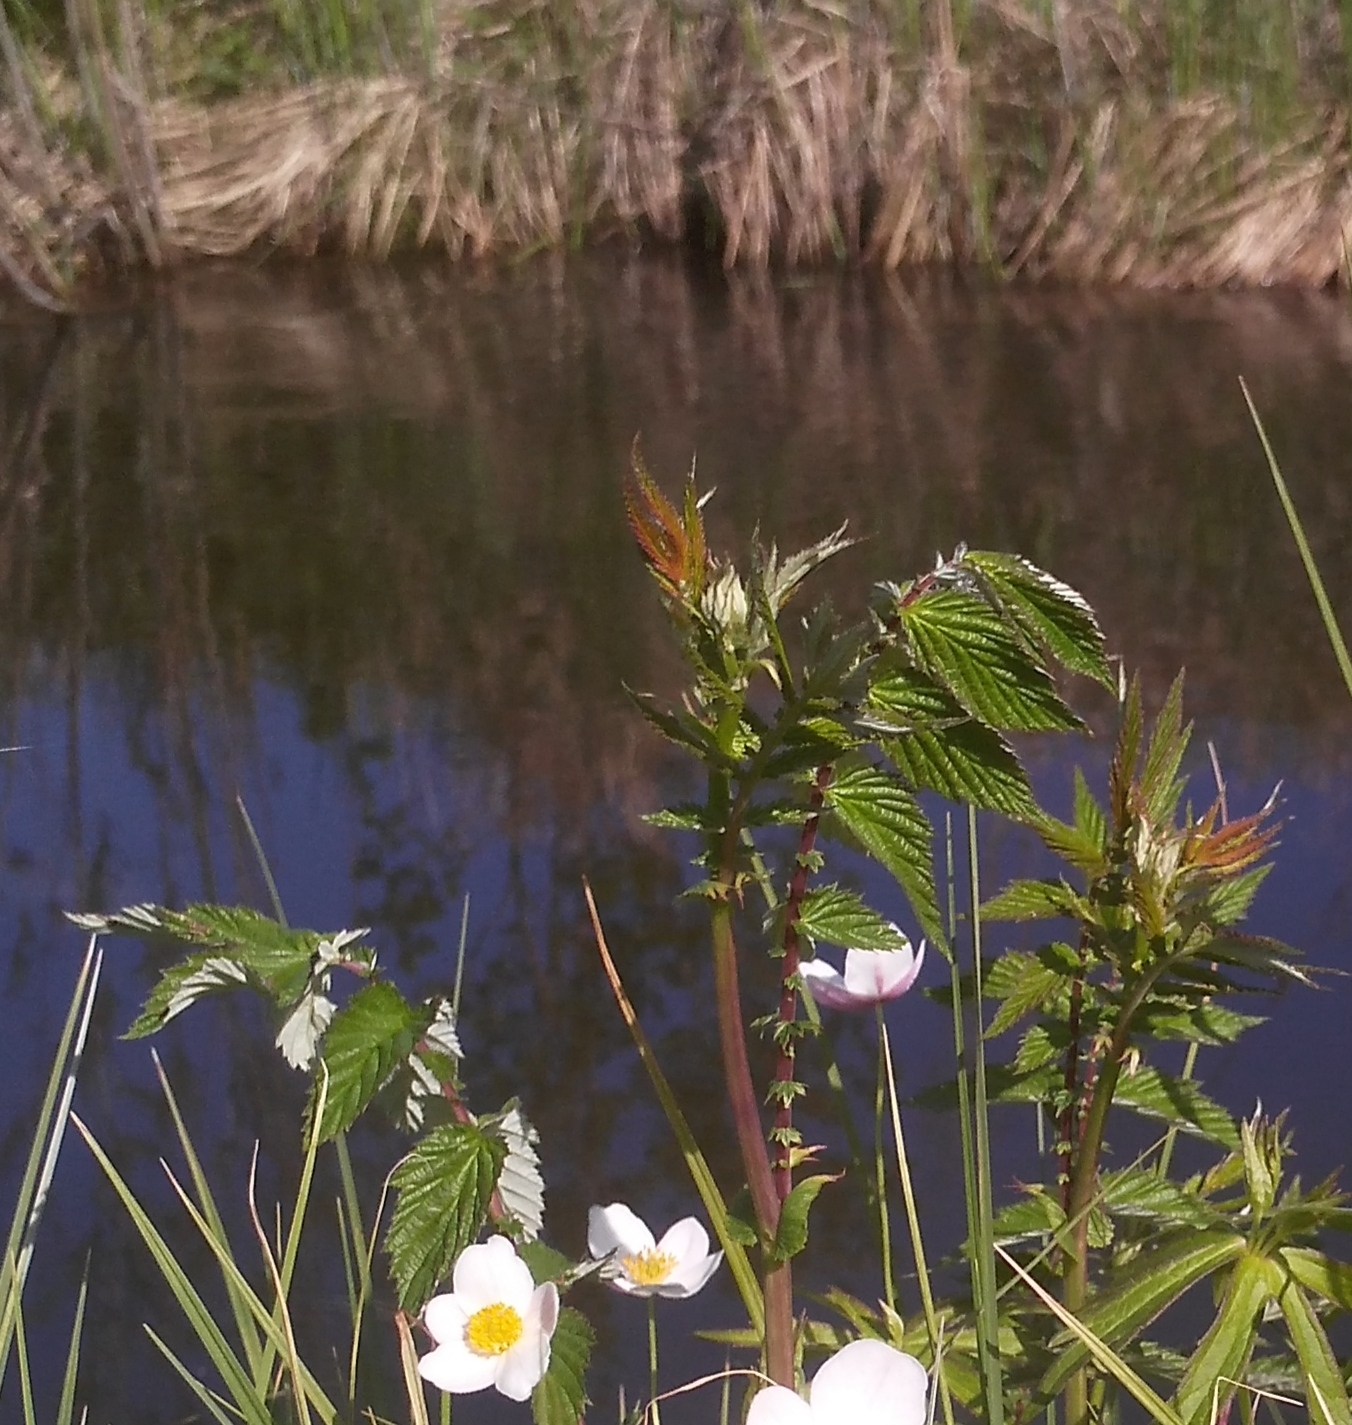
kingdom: Plantae
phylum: Tracheophyta
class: Magnoliopsida
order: Rosales
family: Rosaceae
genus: Filipendula
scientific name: Filipendula ulmaria
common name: Meadowsweet
